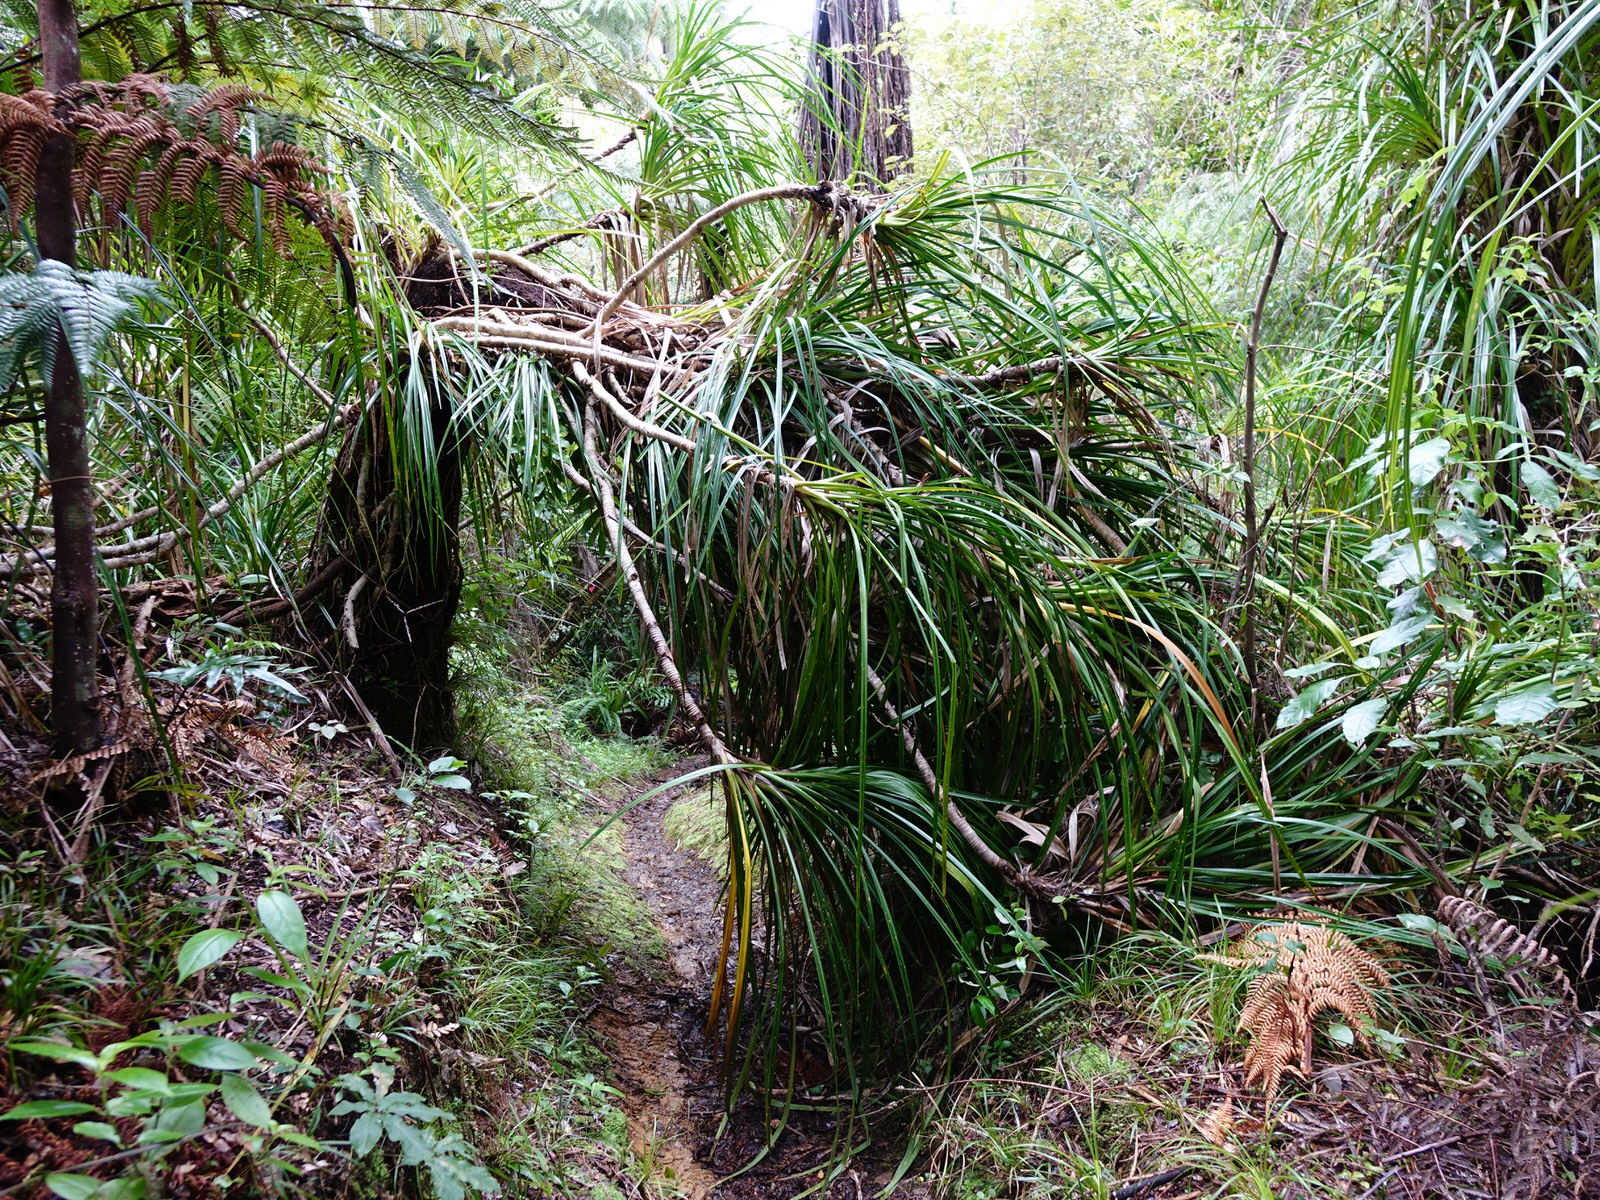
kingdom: Plantae
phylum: Tracheophyta
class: Liliopsida
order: Pandanales
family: Pandanaceae
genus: Freycinetia
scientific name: Freycinetia banksii
